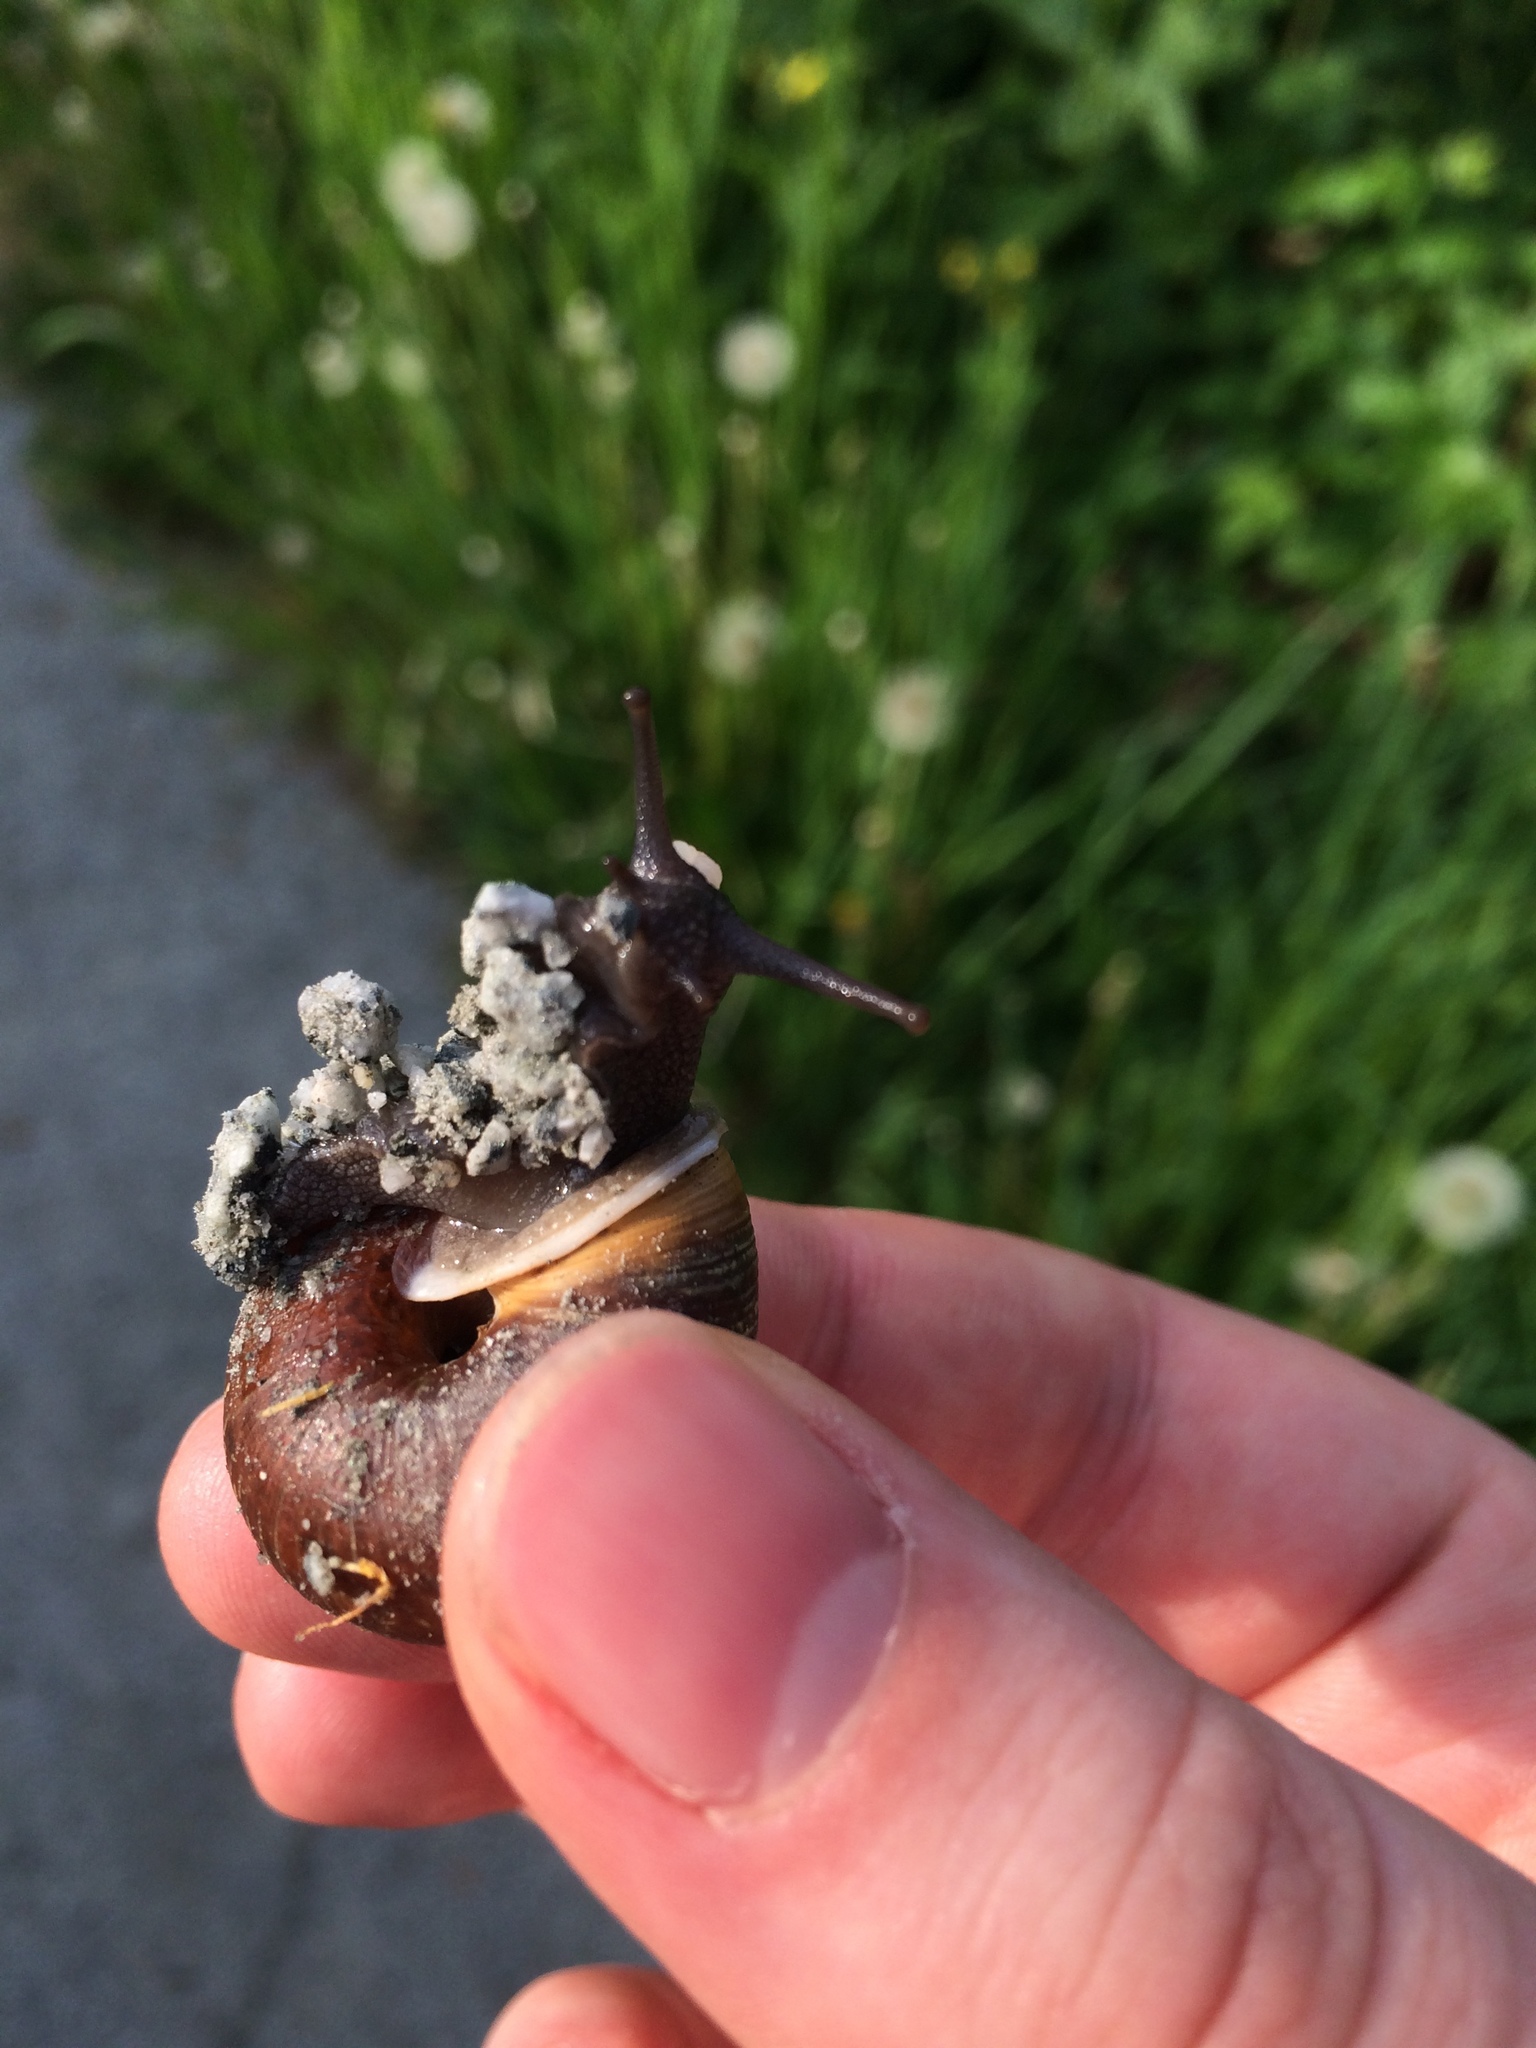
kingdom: Animalia
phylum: Mollusca
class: Gastropoda
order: Stylommatophora
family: Polygyridae
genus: Allogona
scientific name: Allogona townsendiana
